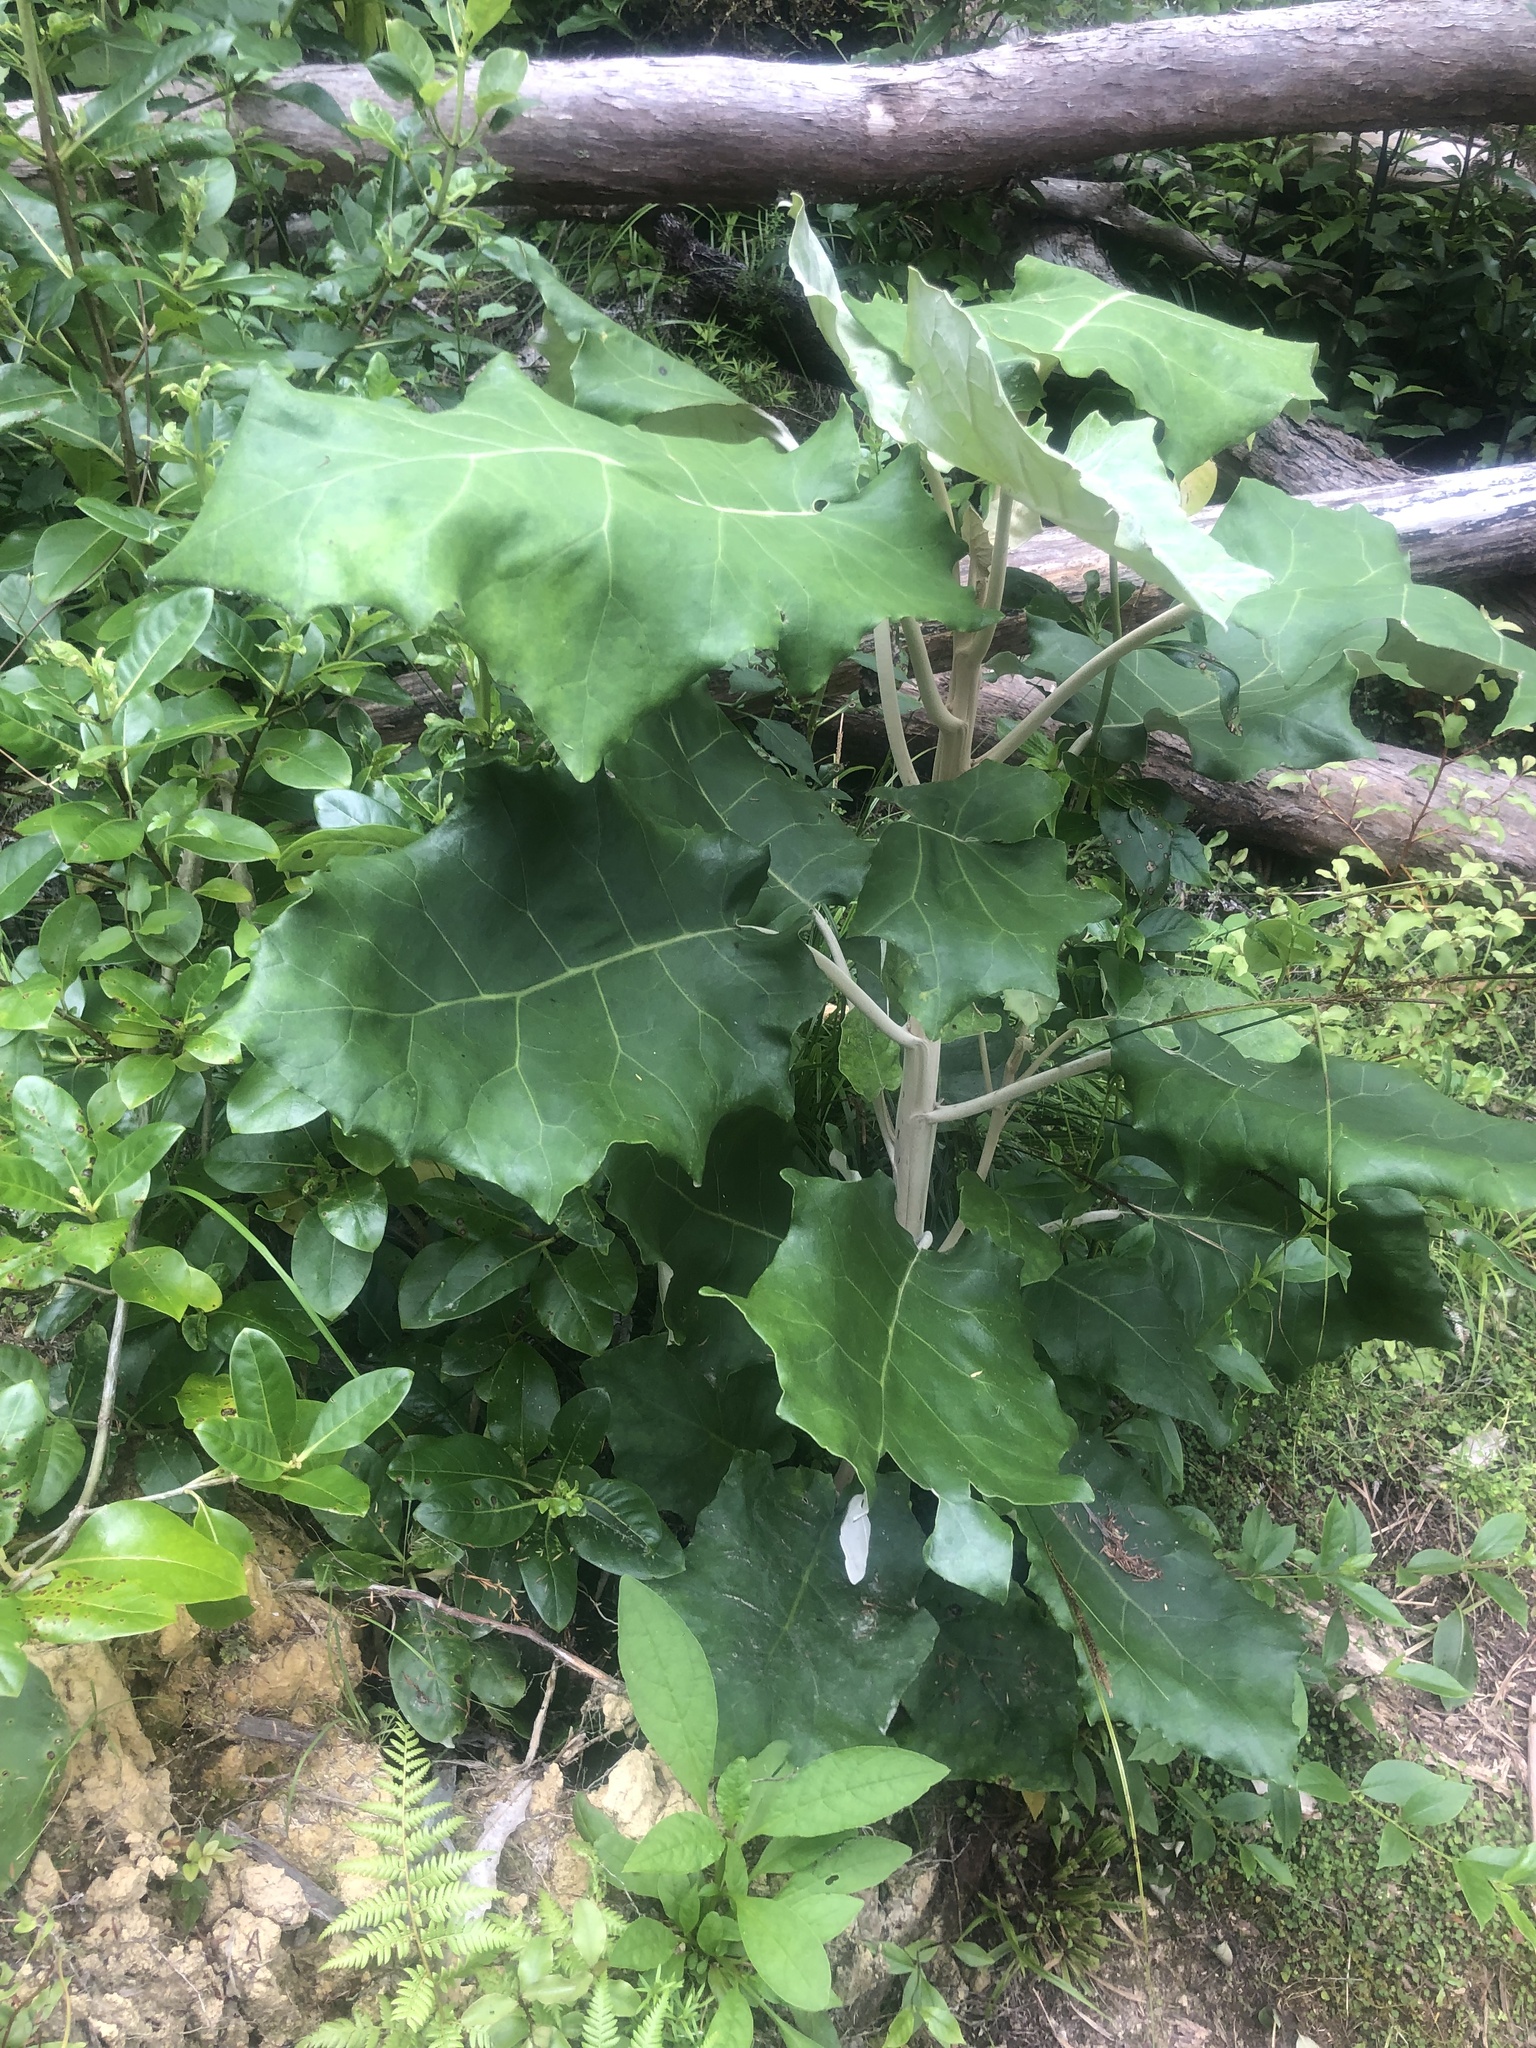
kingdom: Plantae
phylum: Tracheophyta
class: Magnoliopsida
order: Asterales
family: Asteraceae
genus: Brachyglottis
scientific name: Brachyglottis repanda
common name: Hedge ragwort
